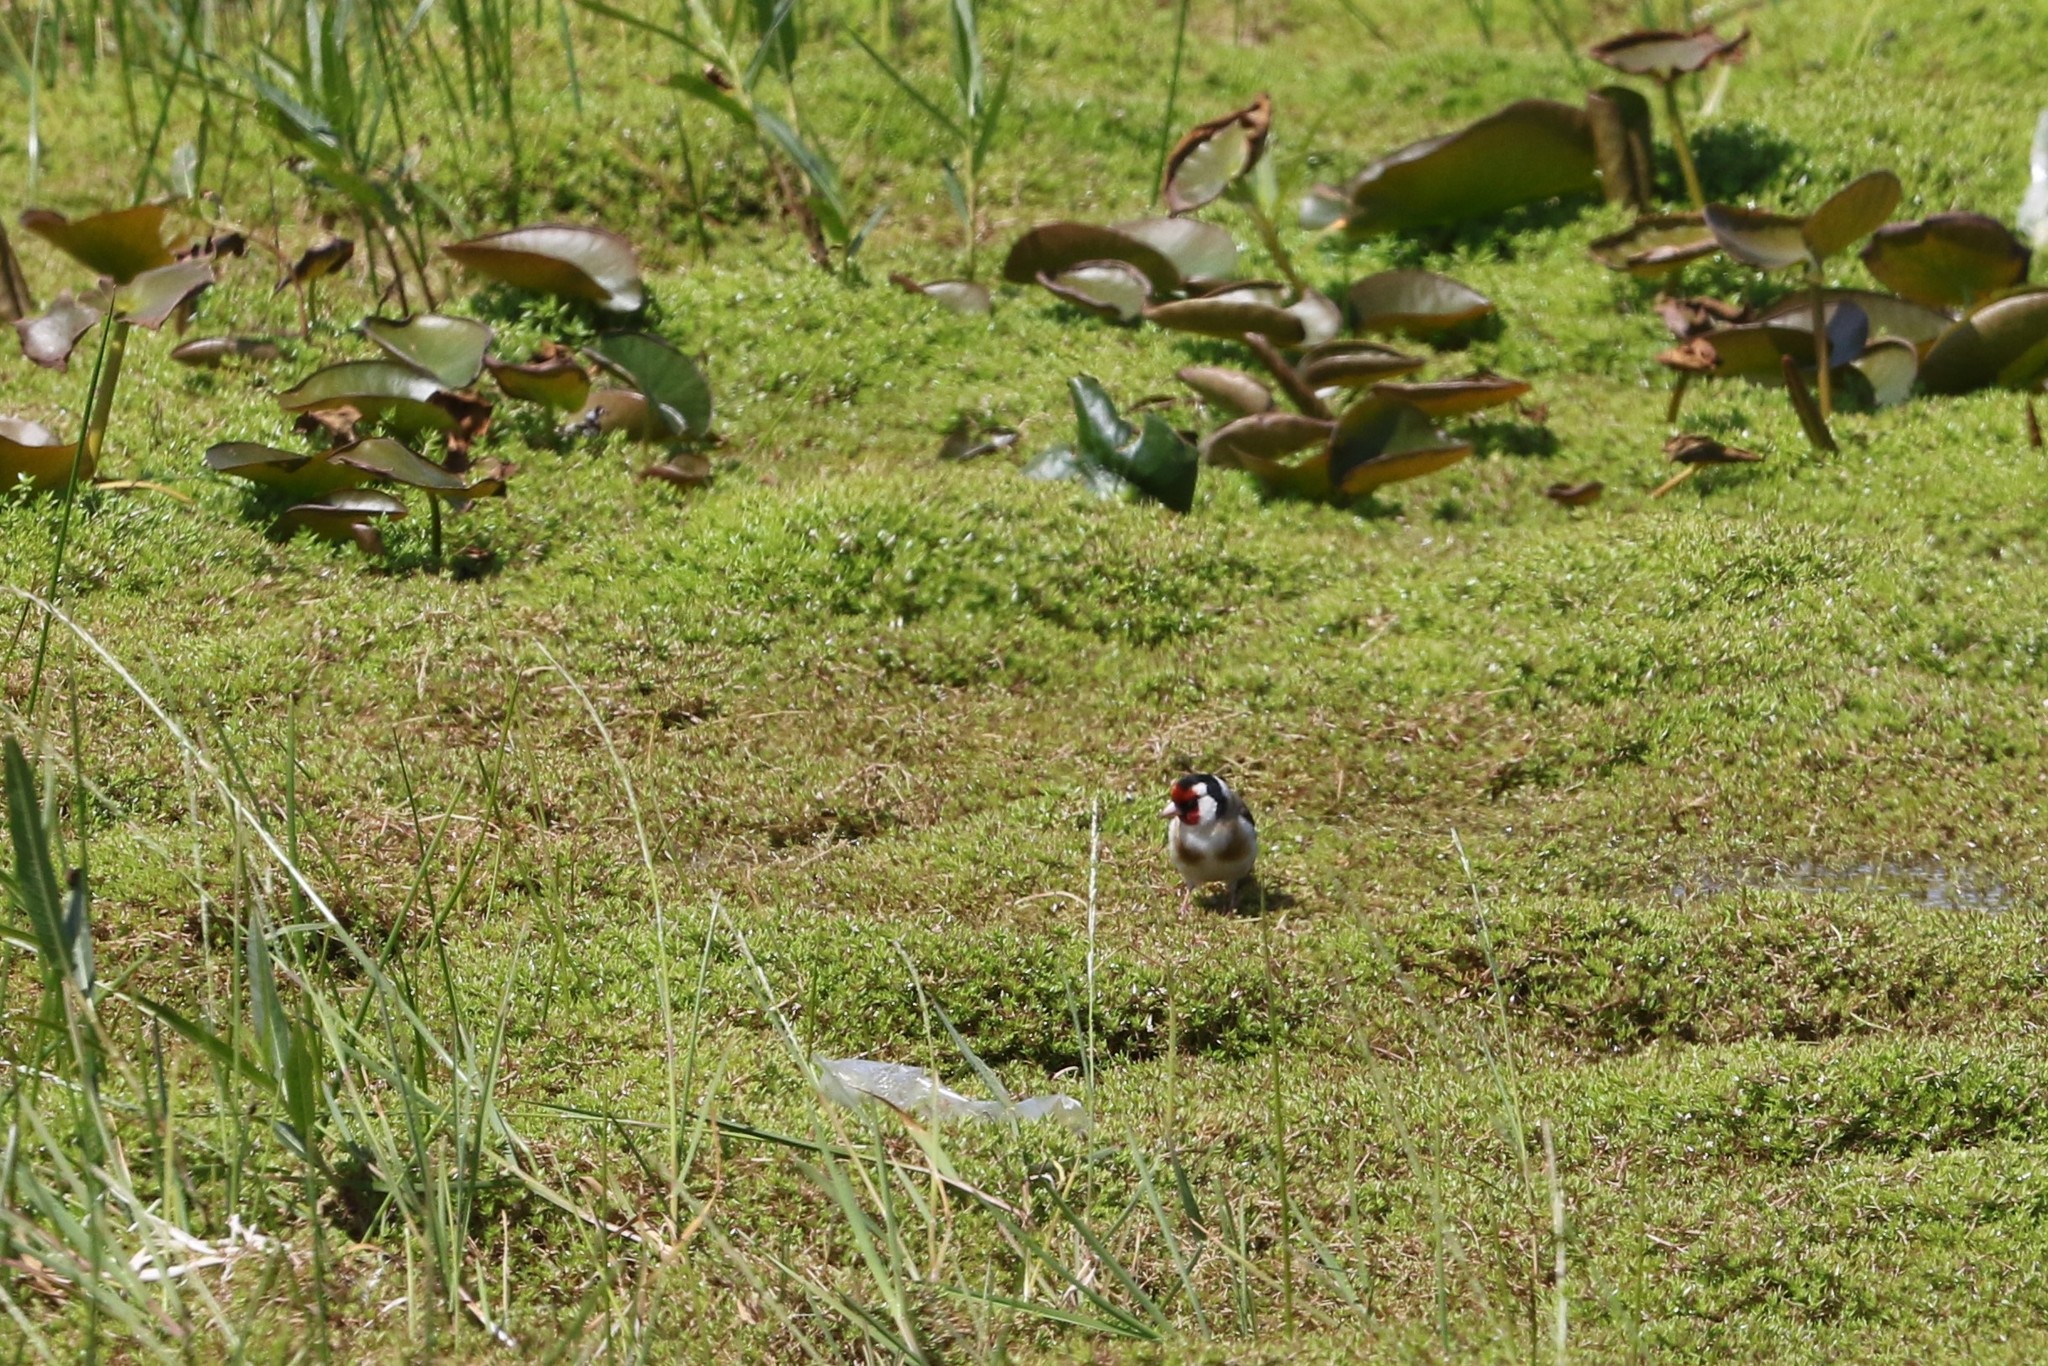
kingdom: Animalia
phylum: Chordata
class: Aves
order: Passeriformes
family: Fringillidae
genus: Carduelis
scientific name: Carduelis carduelis
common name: European goldfinch
